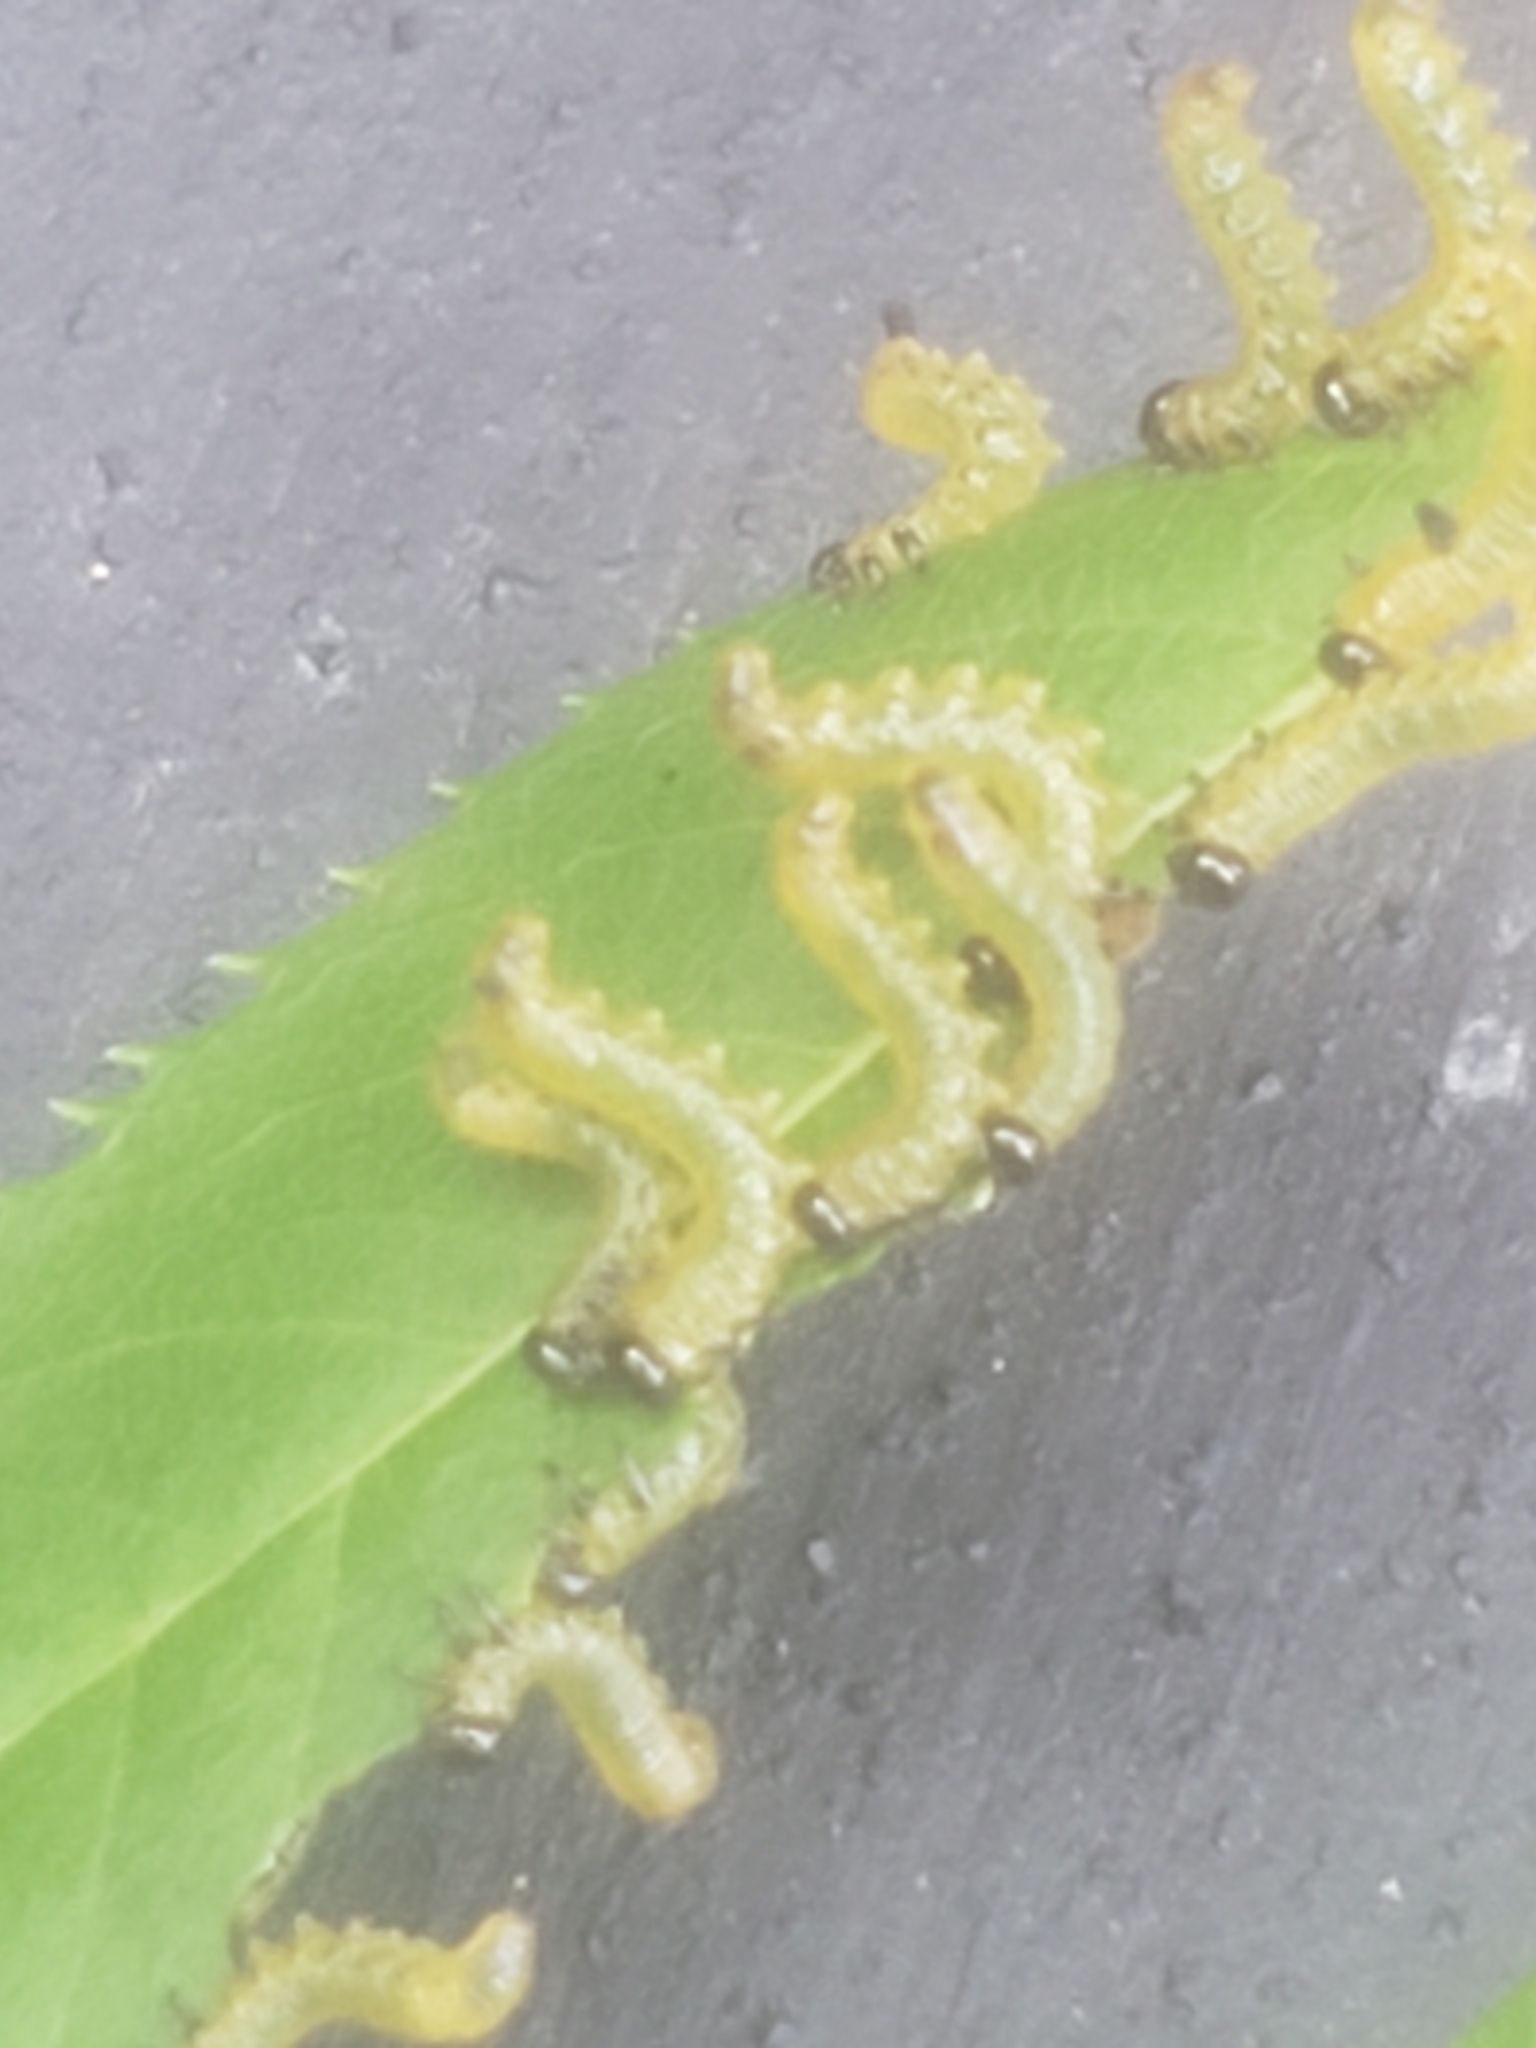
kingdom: Animalia
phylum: Arthropoda
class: Insecta
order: Hymenoptera
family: Tenthredinidae
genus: Pristiphora
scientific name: Pristiphora geniculata
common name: Mountain-ash sawfly
